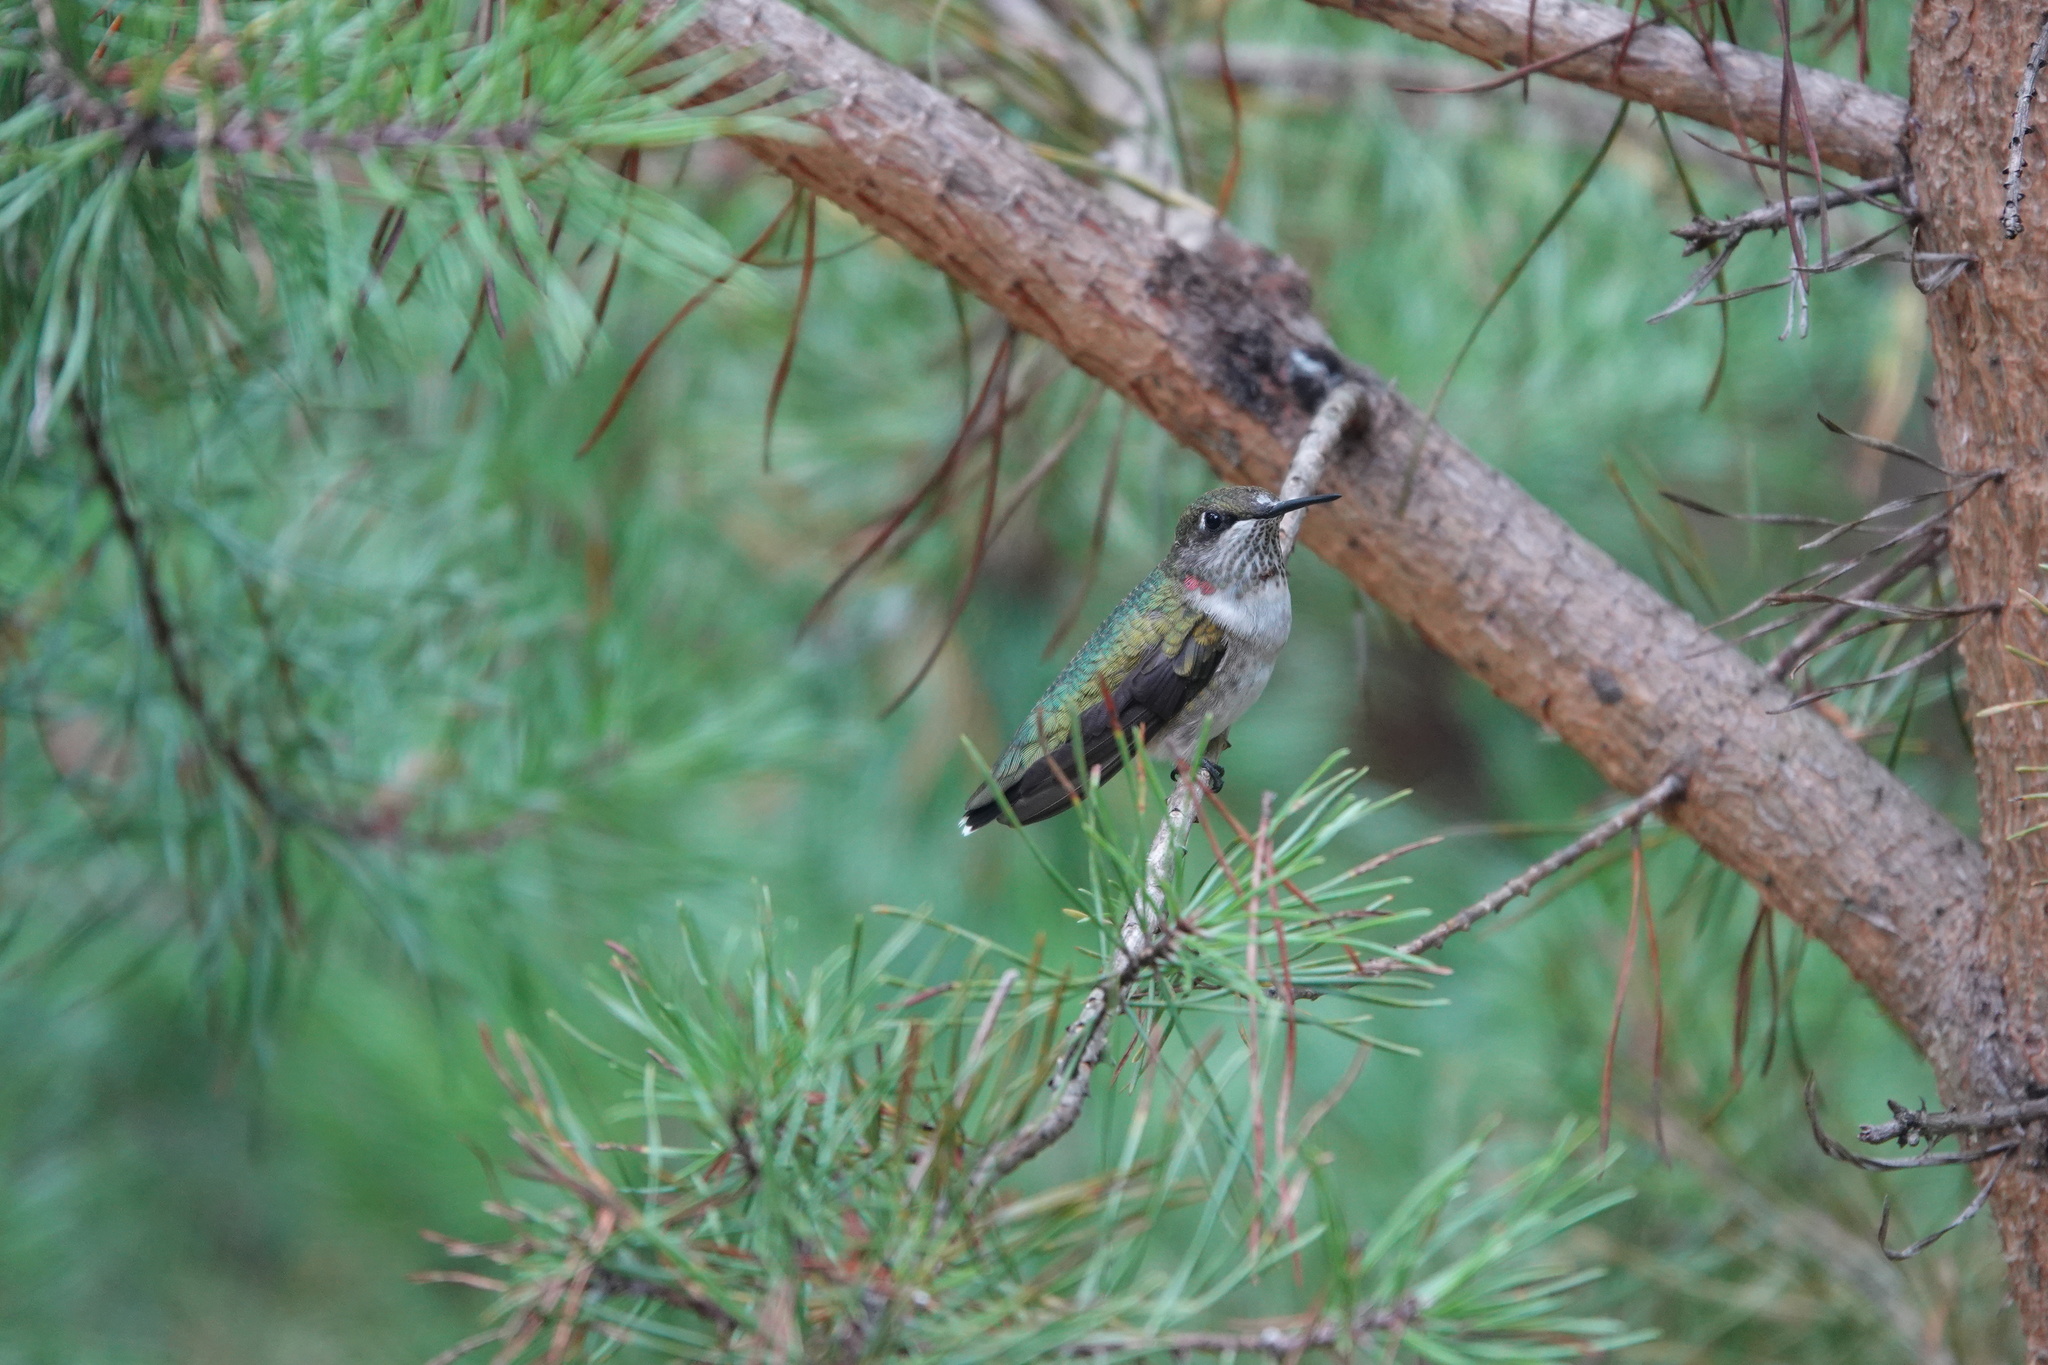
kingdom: Animalia
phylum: Chordata
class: Aves
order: Apodiformes
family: Trochilidae
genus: Archilochus
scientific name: Archilochus colubris
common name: Ruby-throated hummingbird
